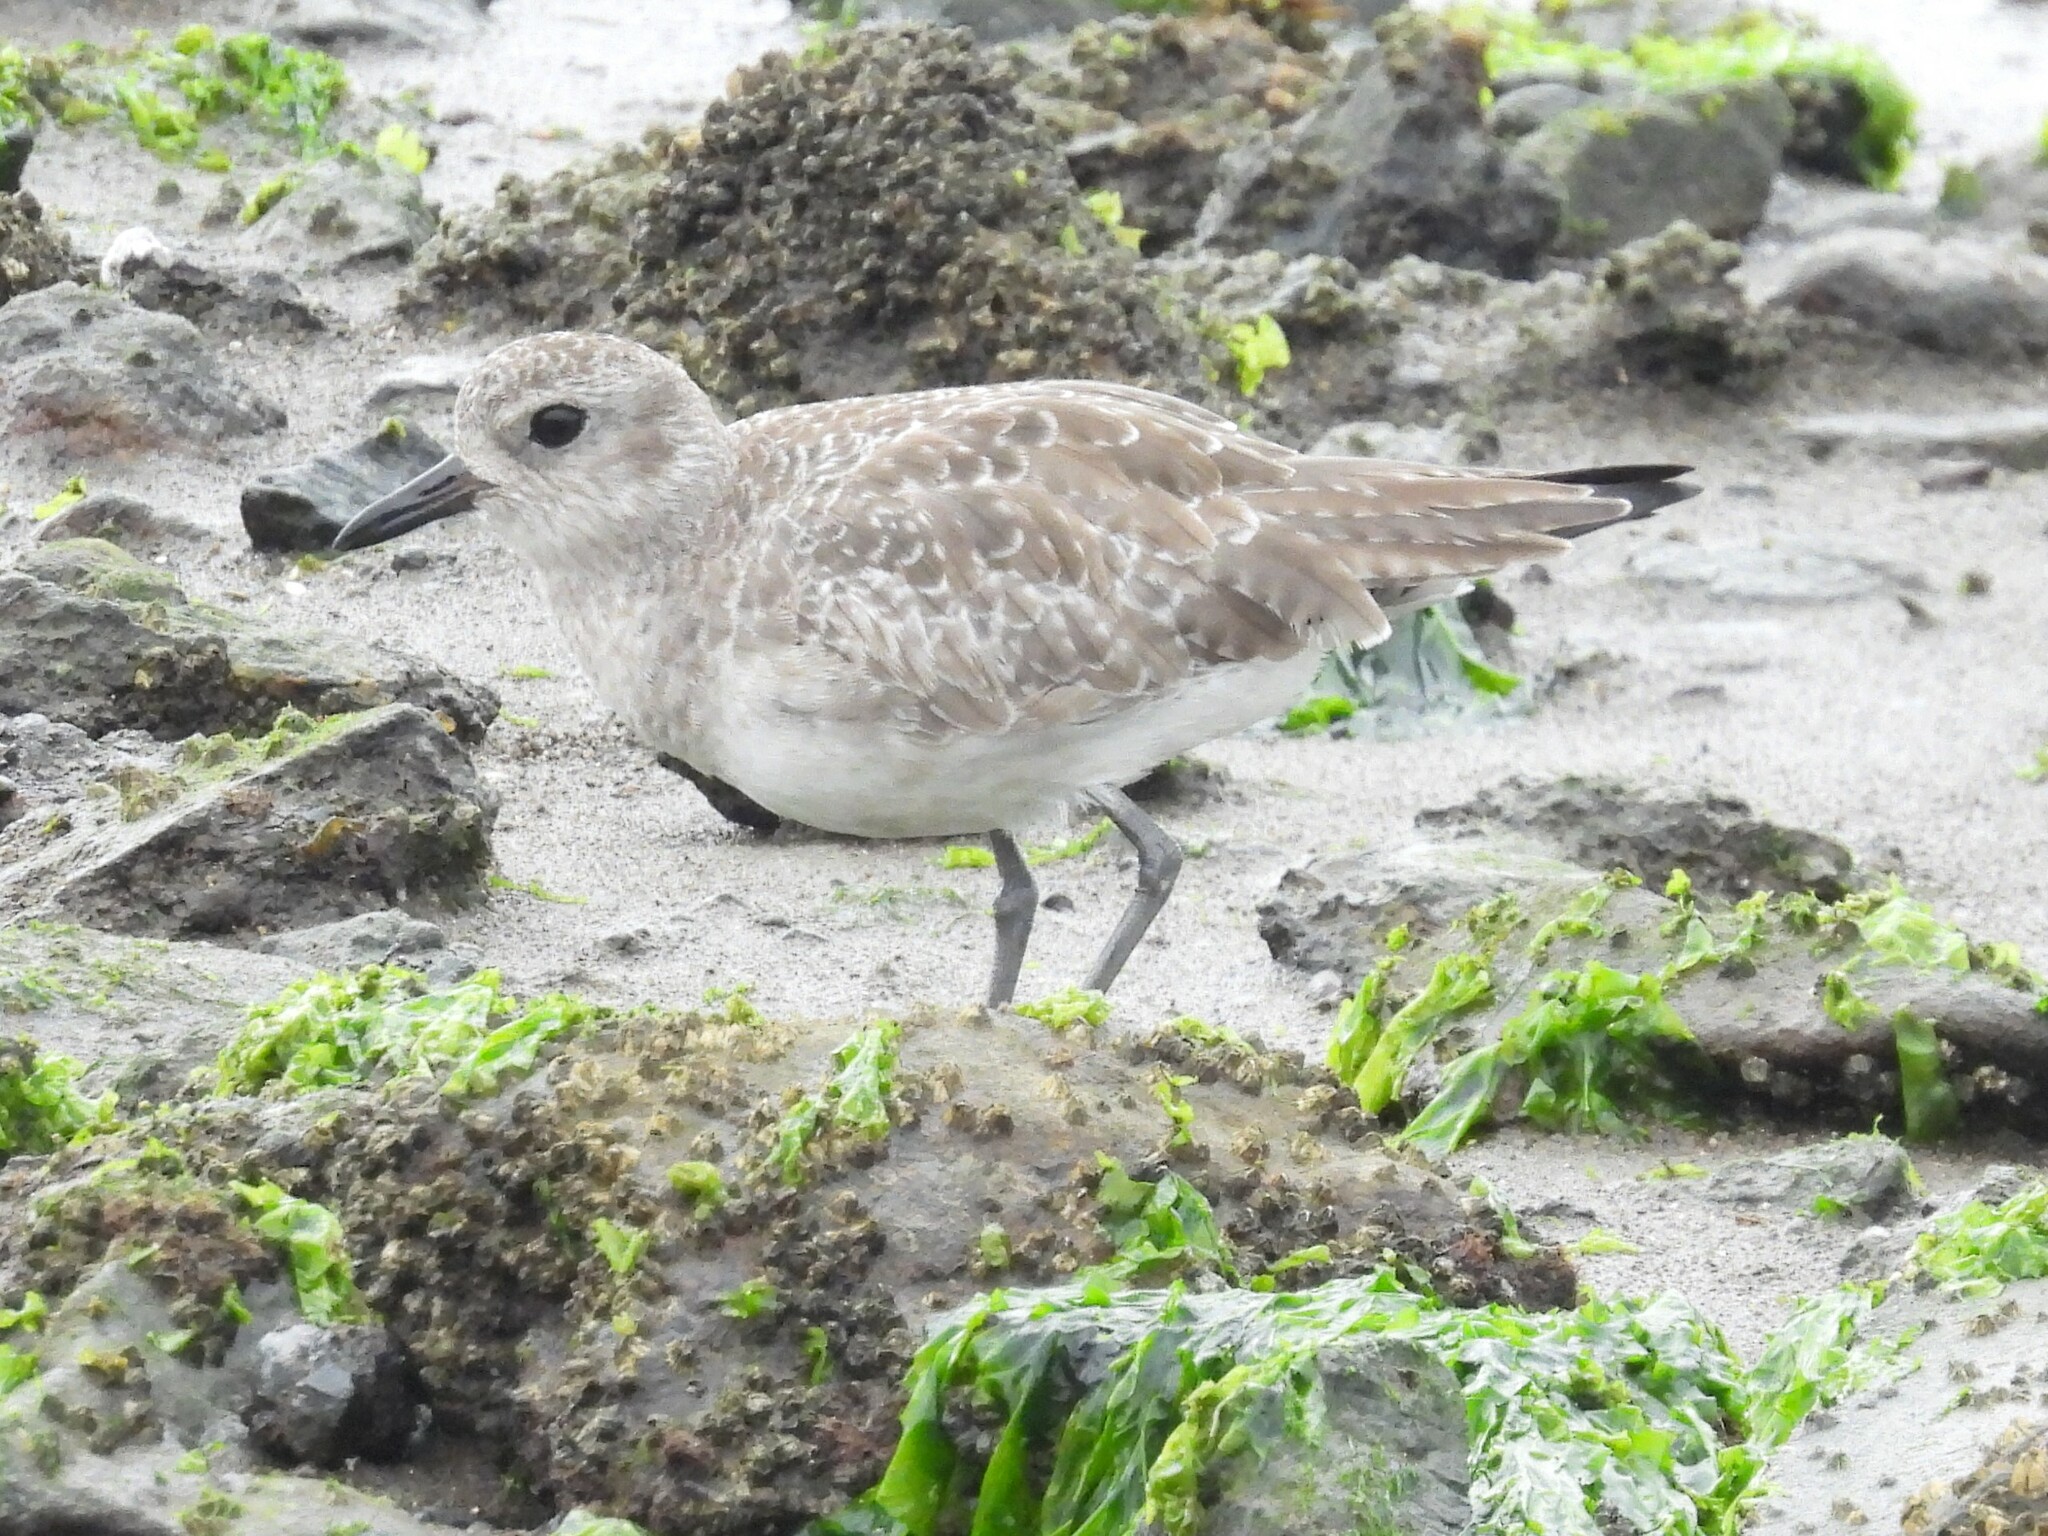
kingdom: Animalia
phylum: Chordata
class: Aves
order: Charadriiformes
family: Charadriidae
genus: Pluvialis
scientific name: Pluvialis squatarola
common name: Grey plover
